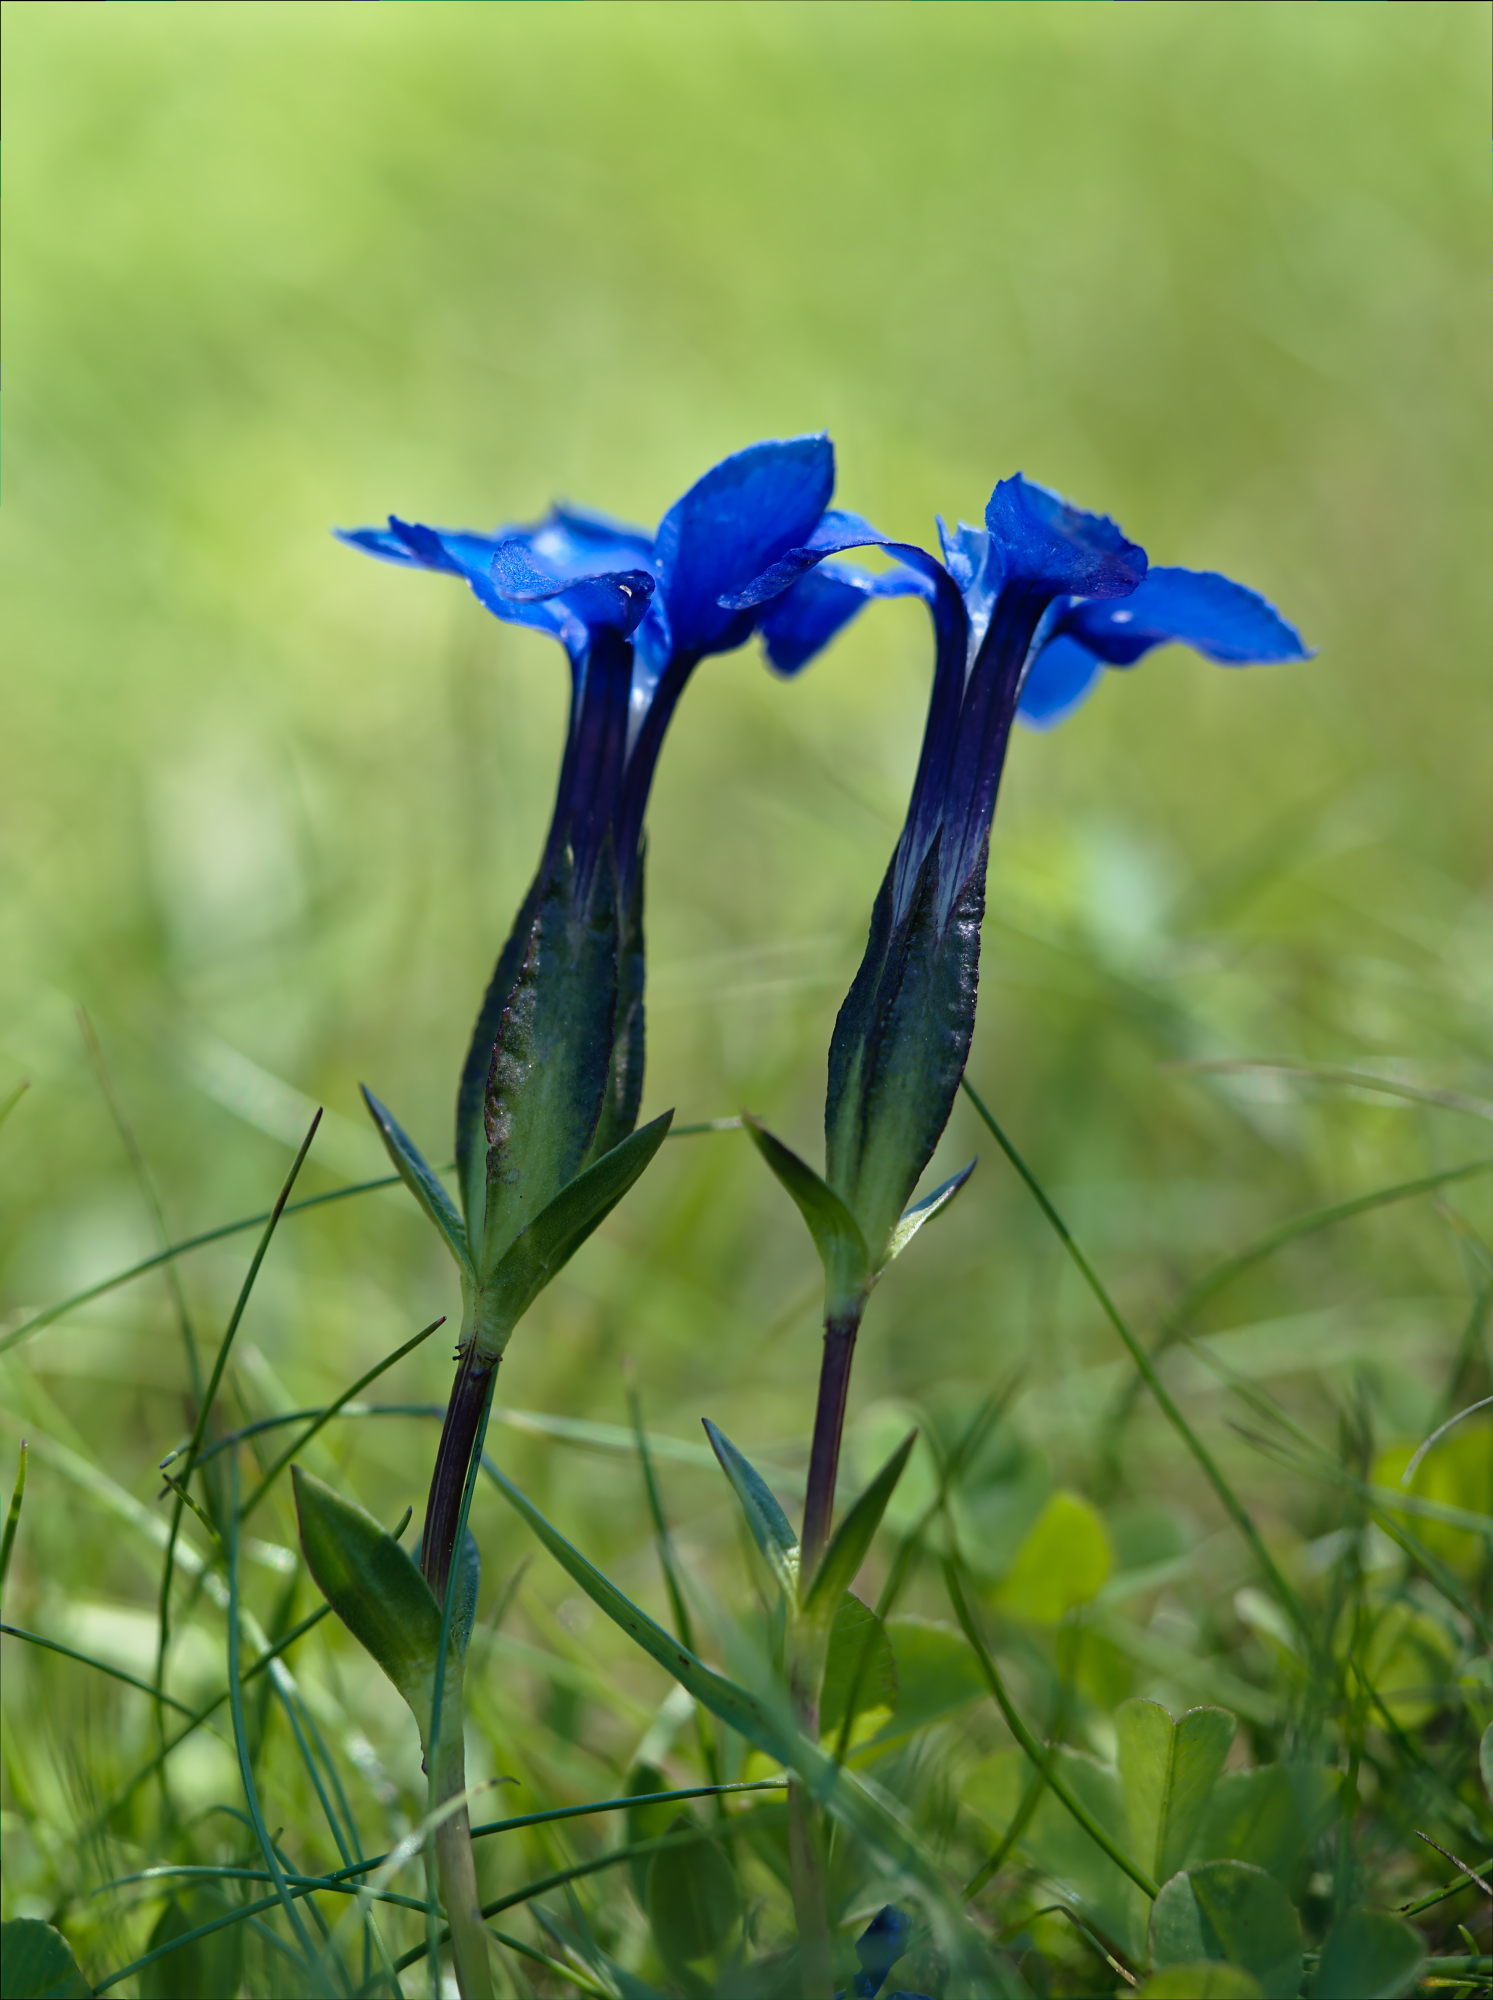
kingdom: Plantae
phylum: Tracheophyta
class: Magnoliopsida
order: Gentianales
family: Gentianaceae
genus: Gentiana
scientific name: Gentiana verna
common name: Spring gentian
